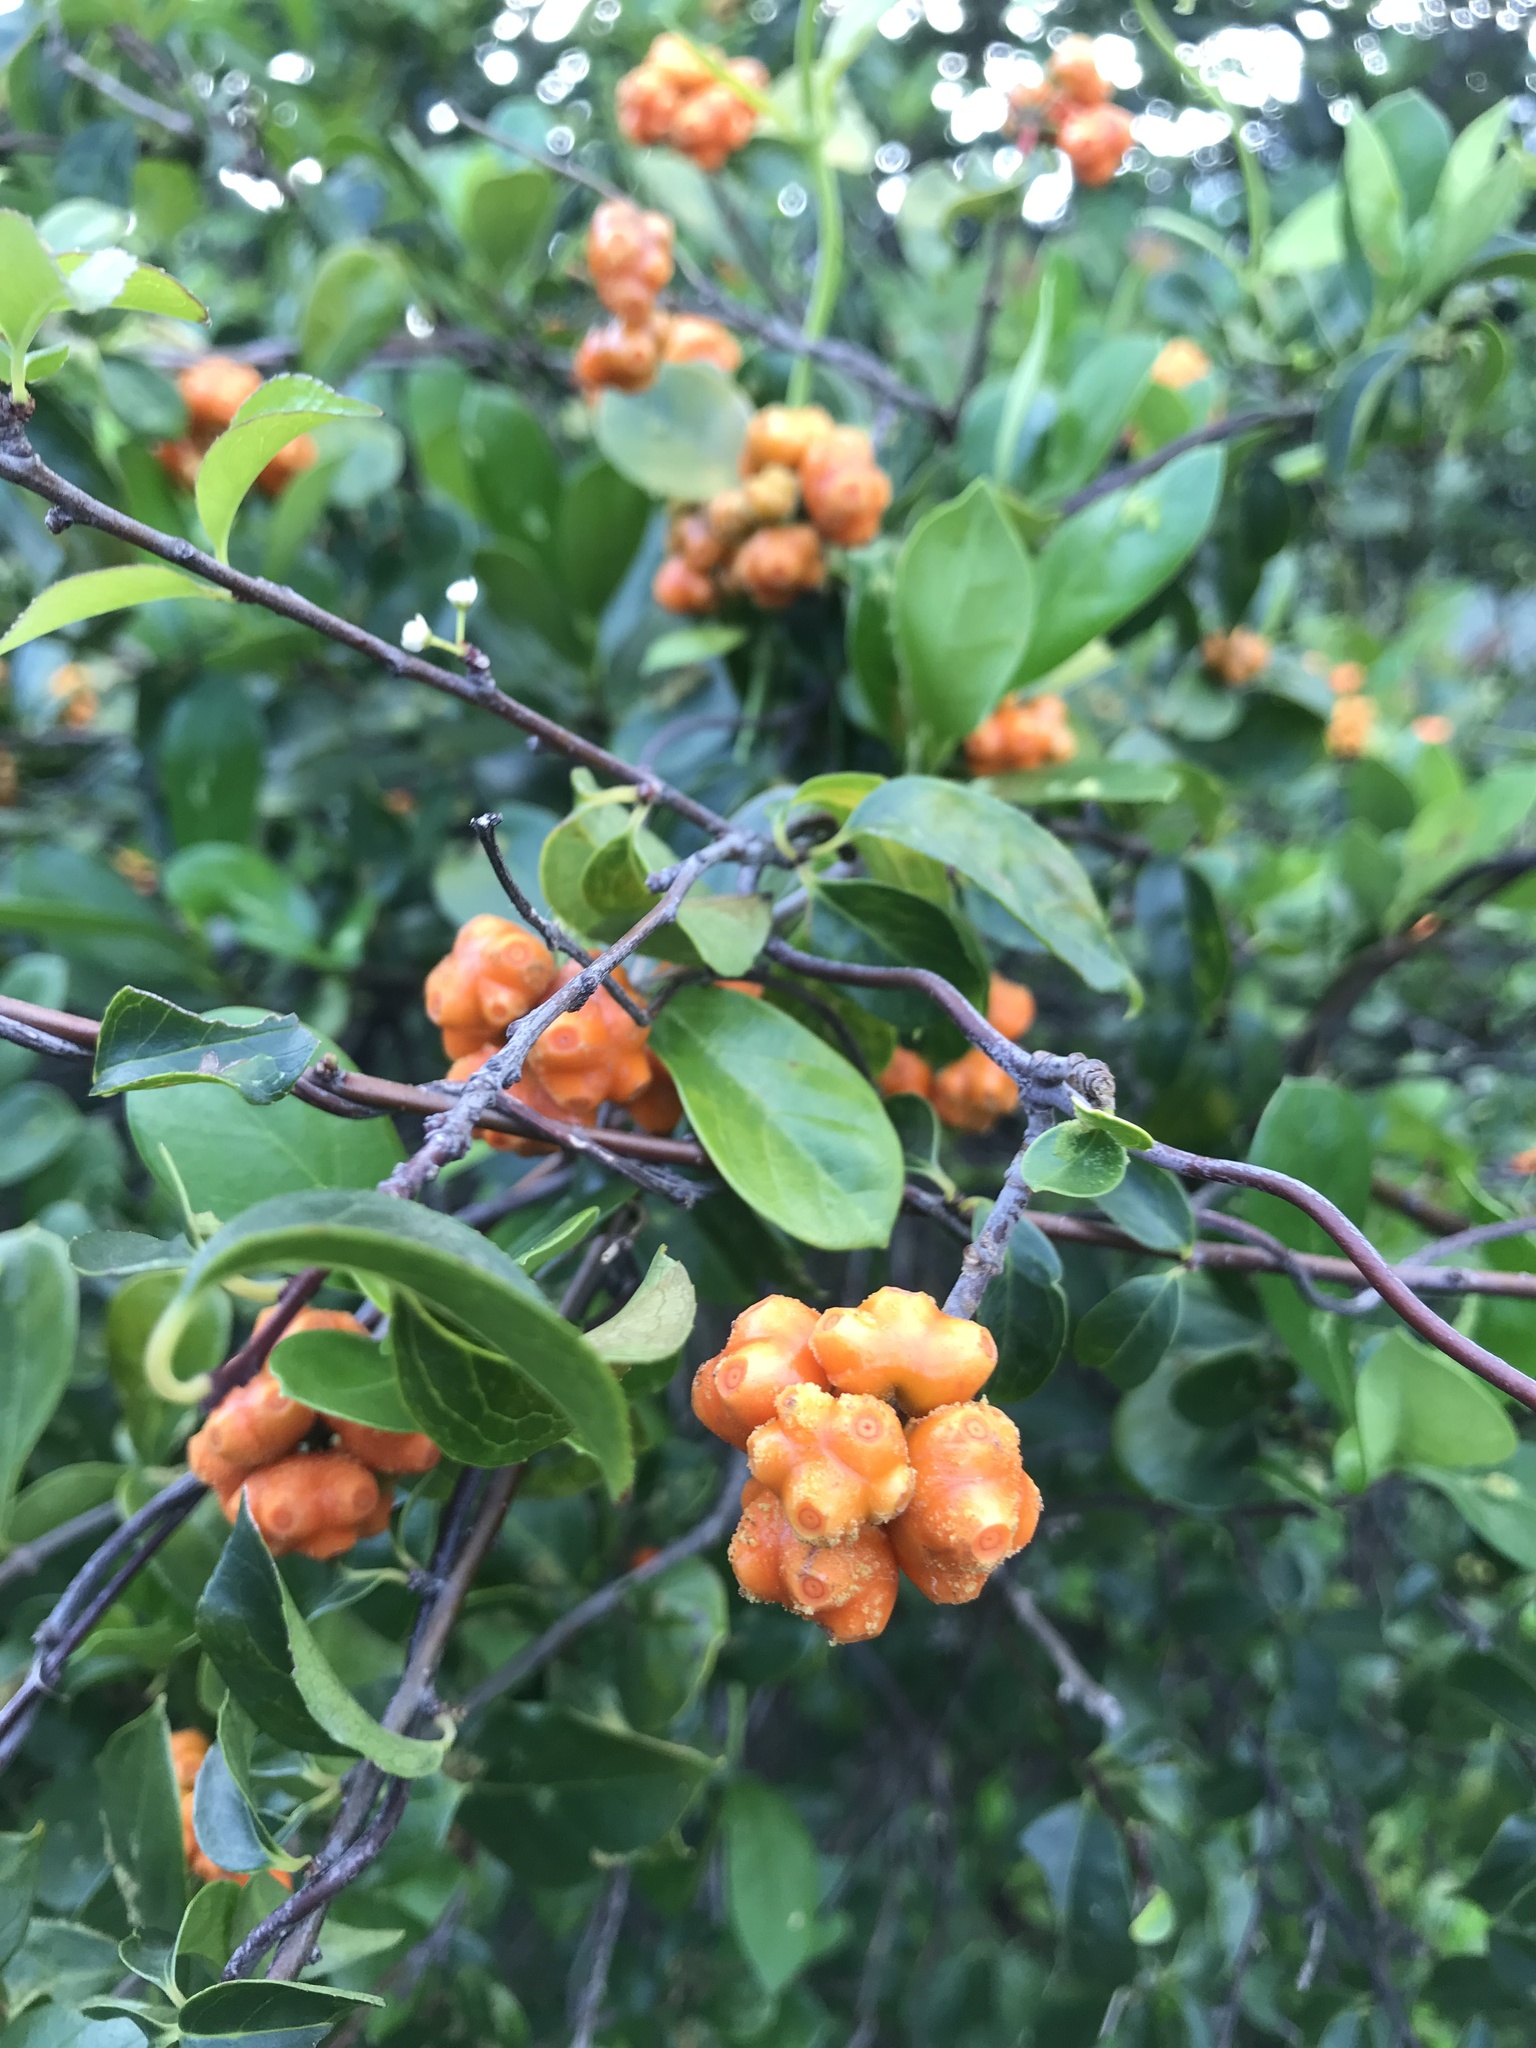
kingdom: Plantae
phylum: Tracheophyta
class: Magnoliopsida
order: Gentianales
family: Rubiaceae
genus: Gynochthodes
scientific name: Gynochthodes parvifolia
